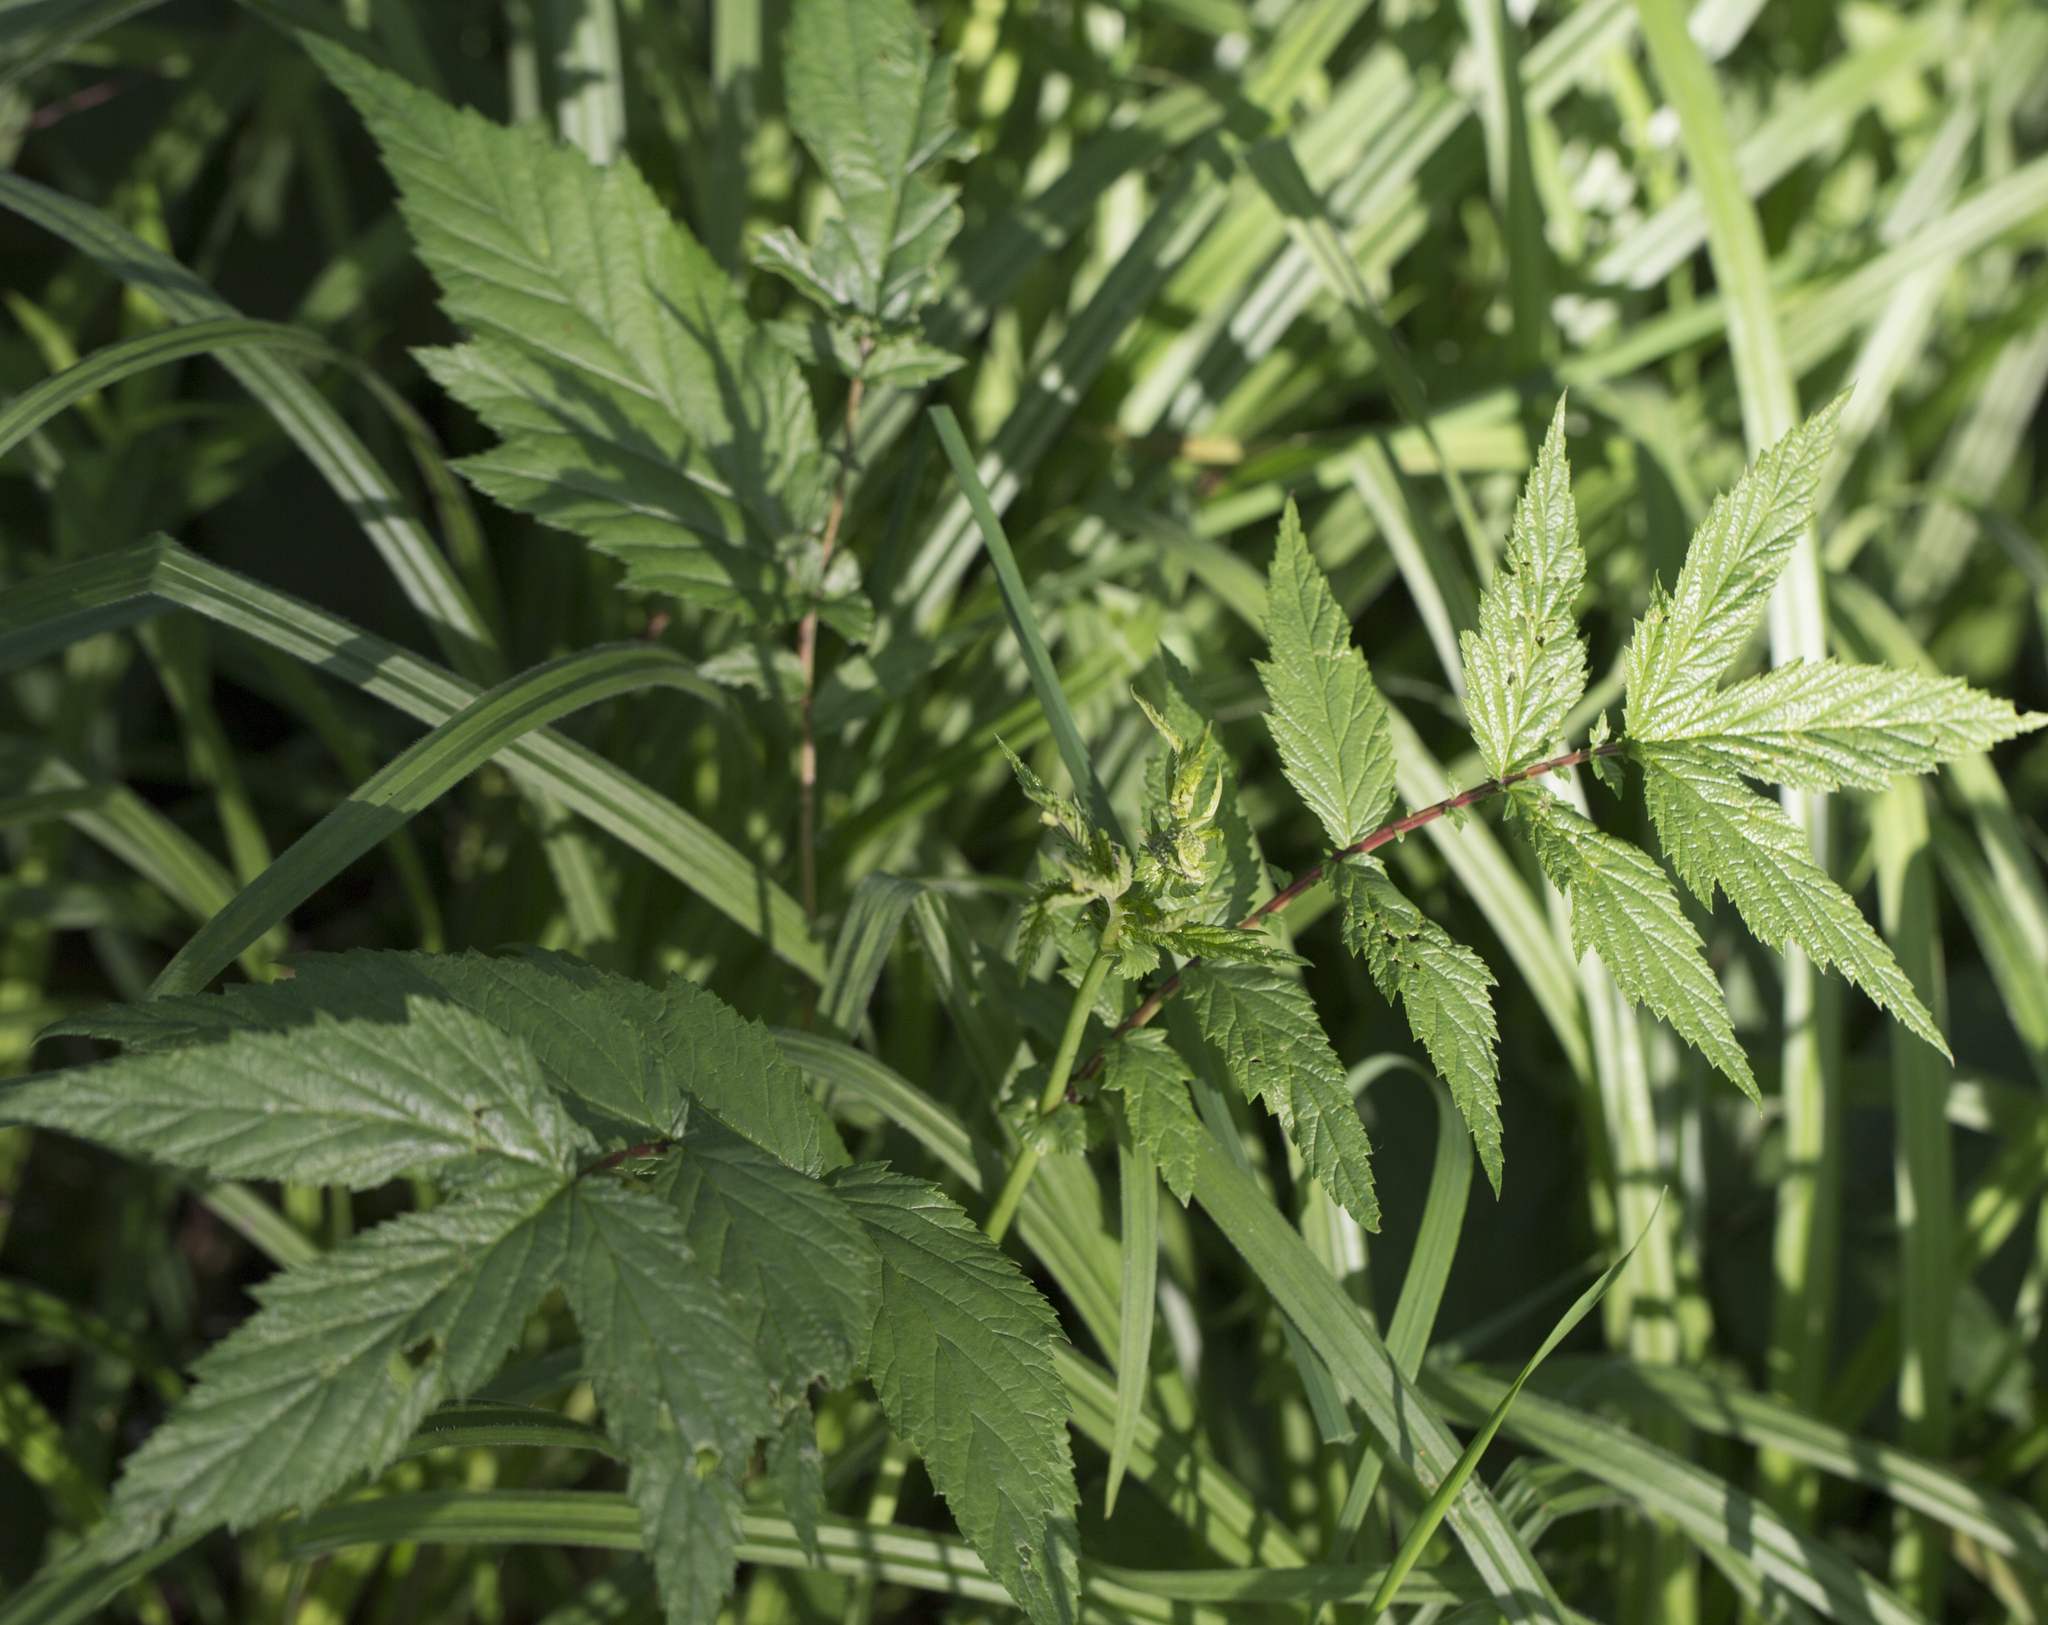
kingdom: Plantae
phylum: Tracheophyta
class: Magnoliopsida
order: Rosales
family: Rosaceae
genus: Filipendula
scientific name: Filipendula ulmaria
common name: Meadowsweet
